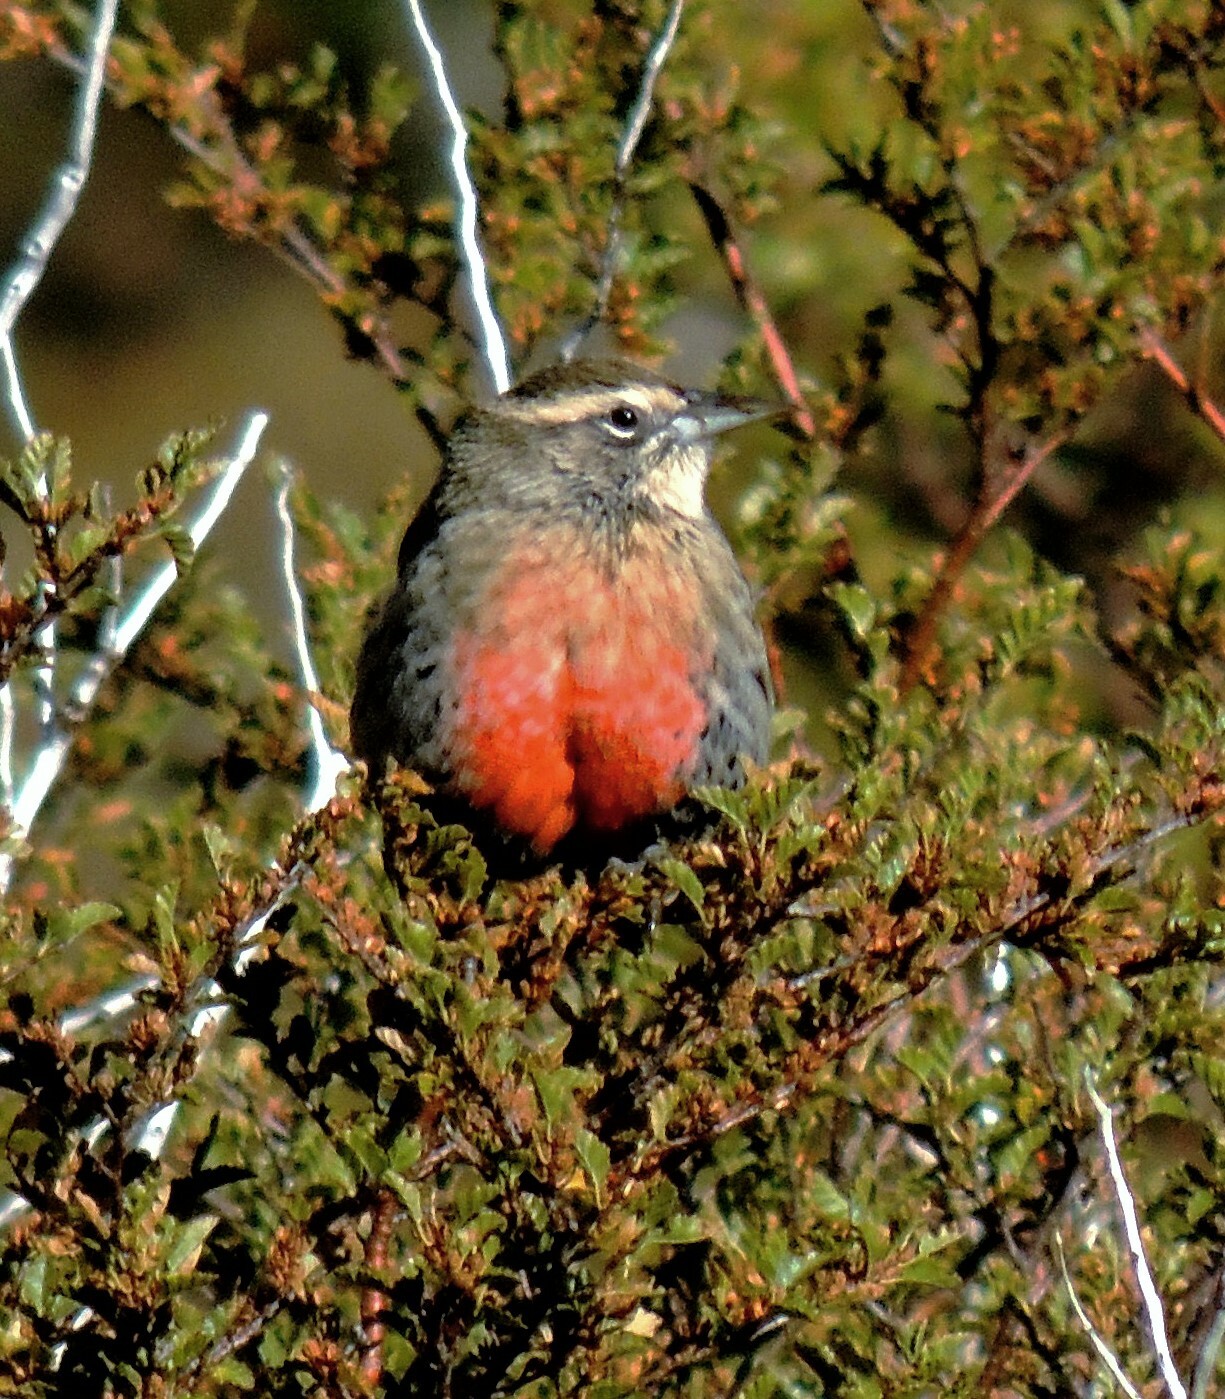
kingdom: Animalia
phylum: Chordata
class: Aves
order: Passeriformes
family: Icteridae
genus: Sturnella
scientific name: Sturnella loyca
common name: Long-tailed meadowlark
